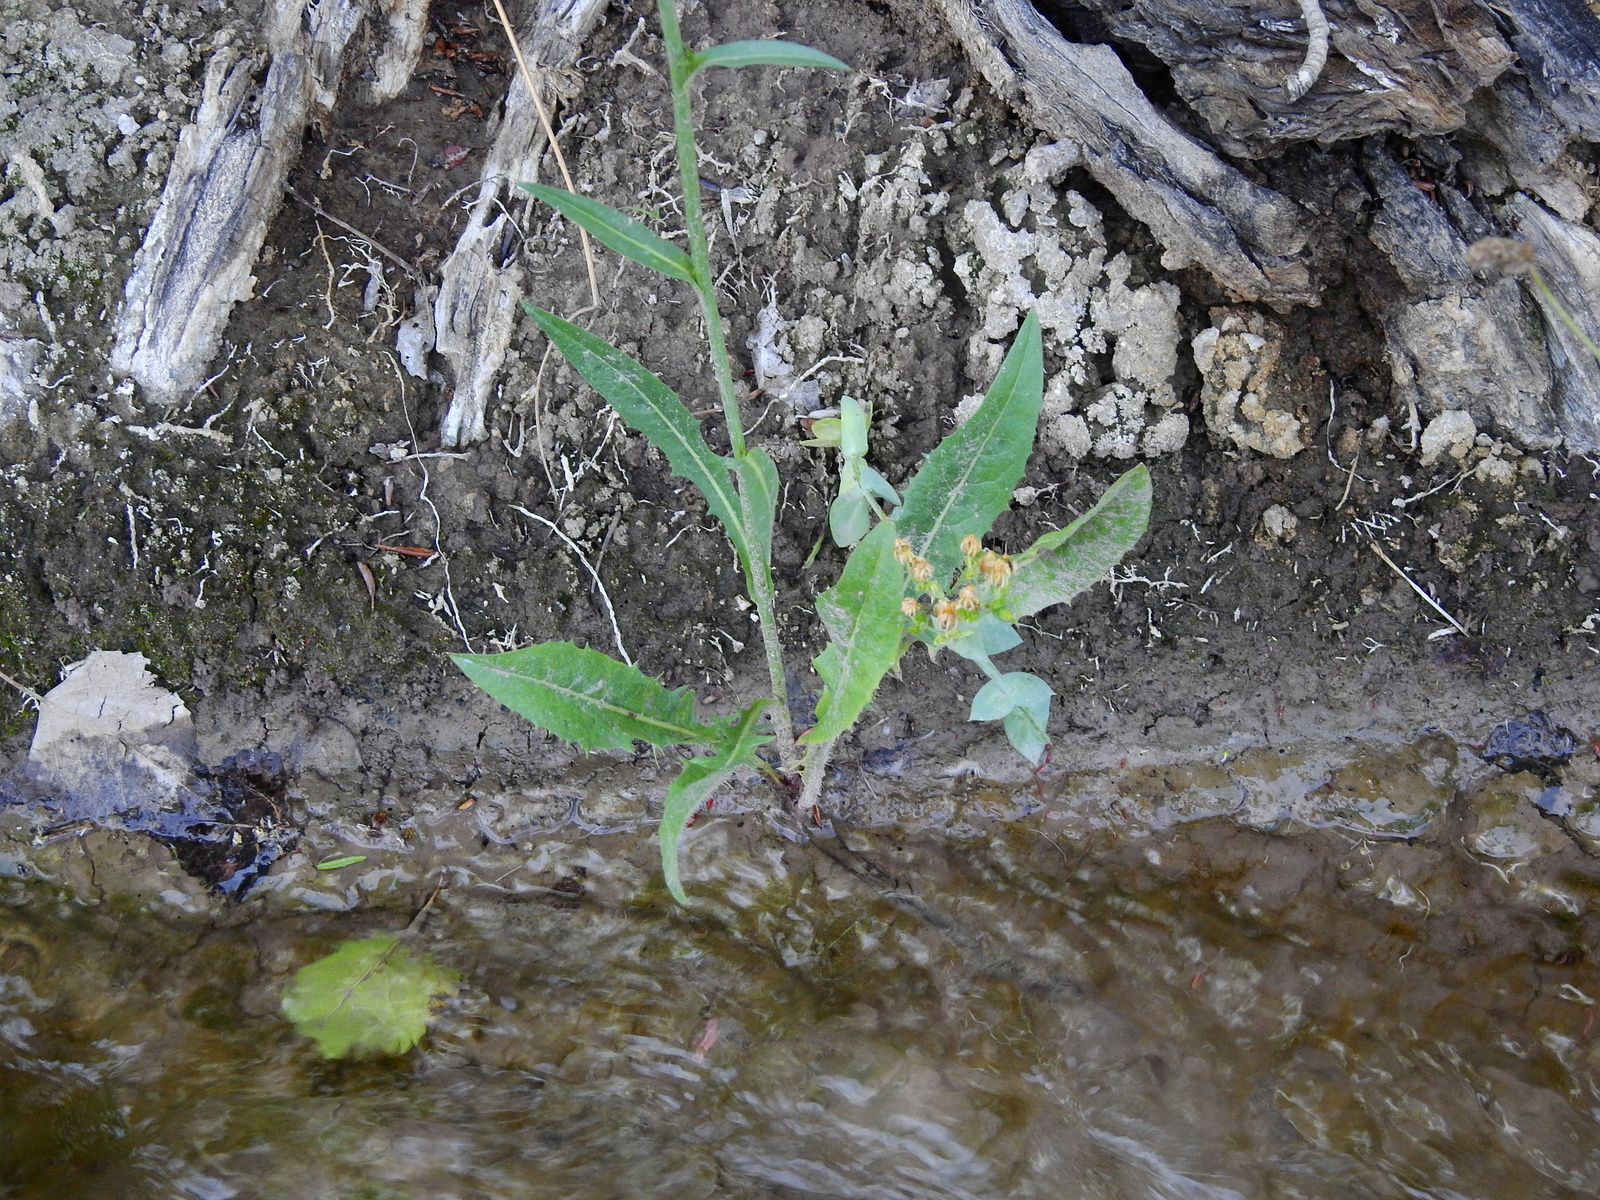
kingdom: Plantae
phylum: Tracheophyta
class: Magnoliopsida
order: Asterales
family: Asteraceae
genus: Cichorium
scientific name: Cichorium intybus
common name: Chicory
